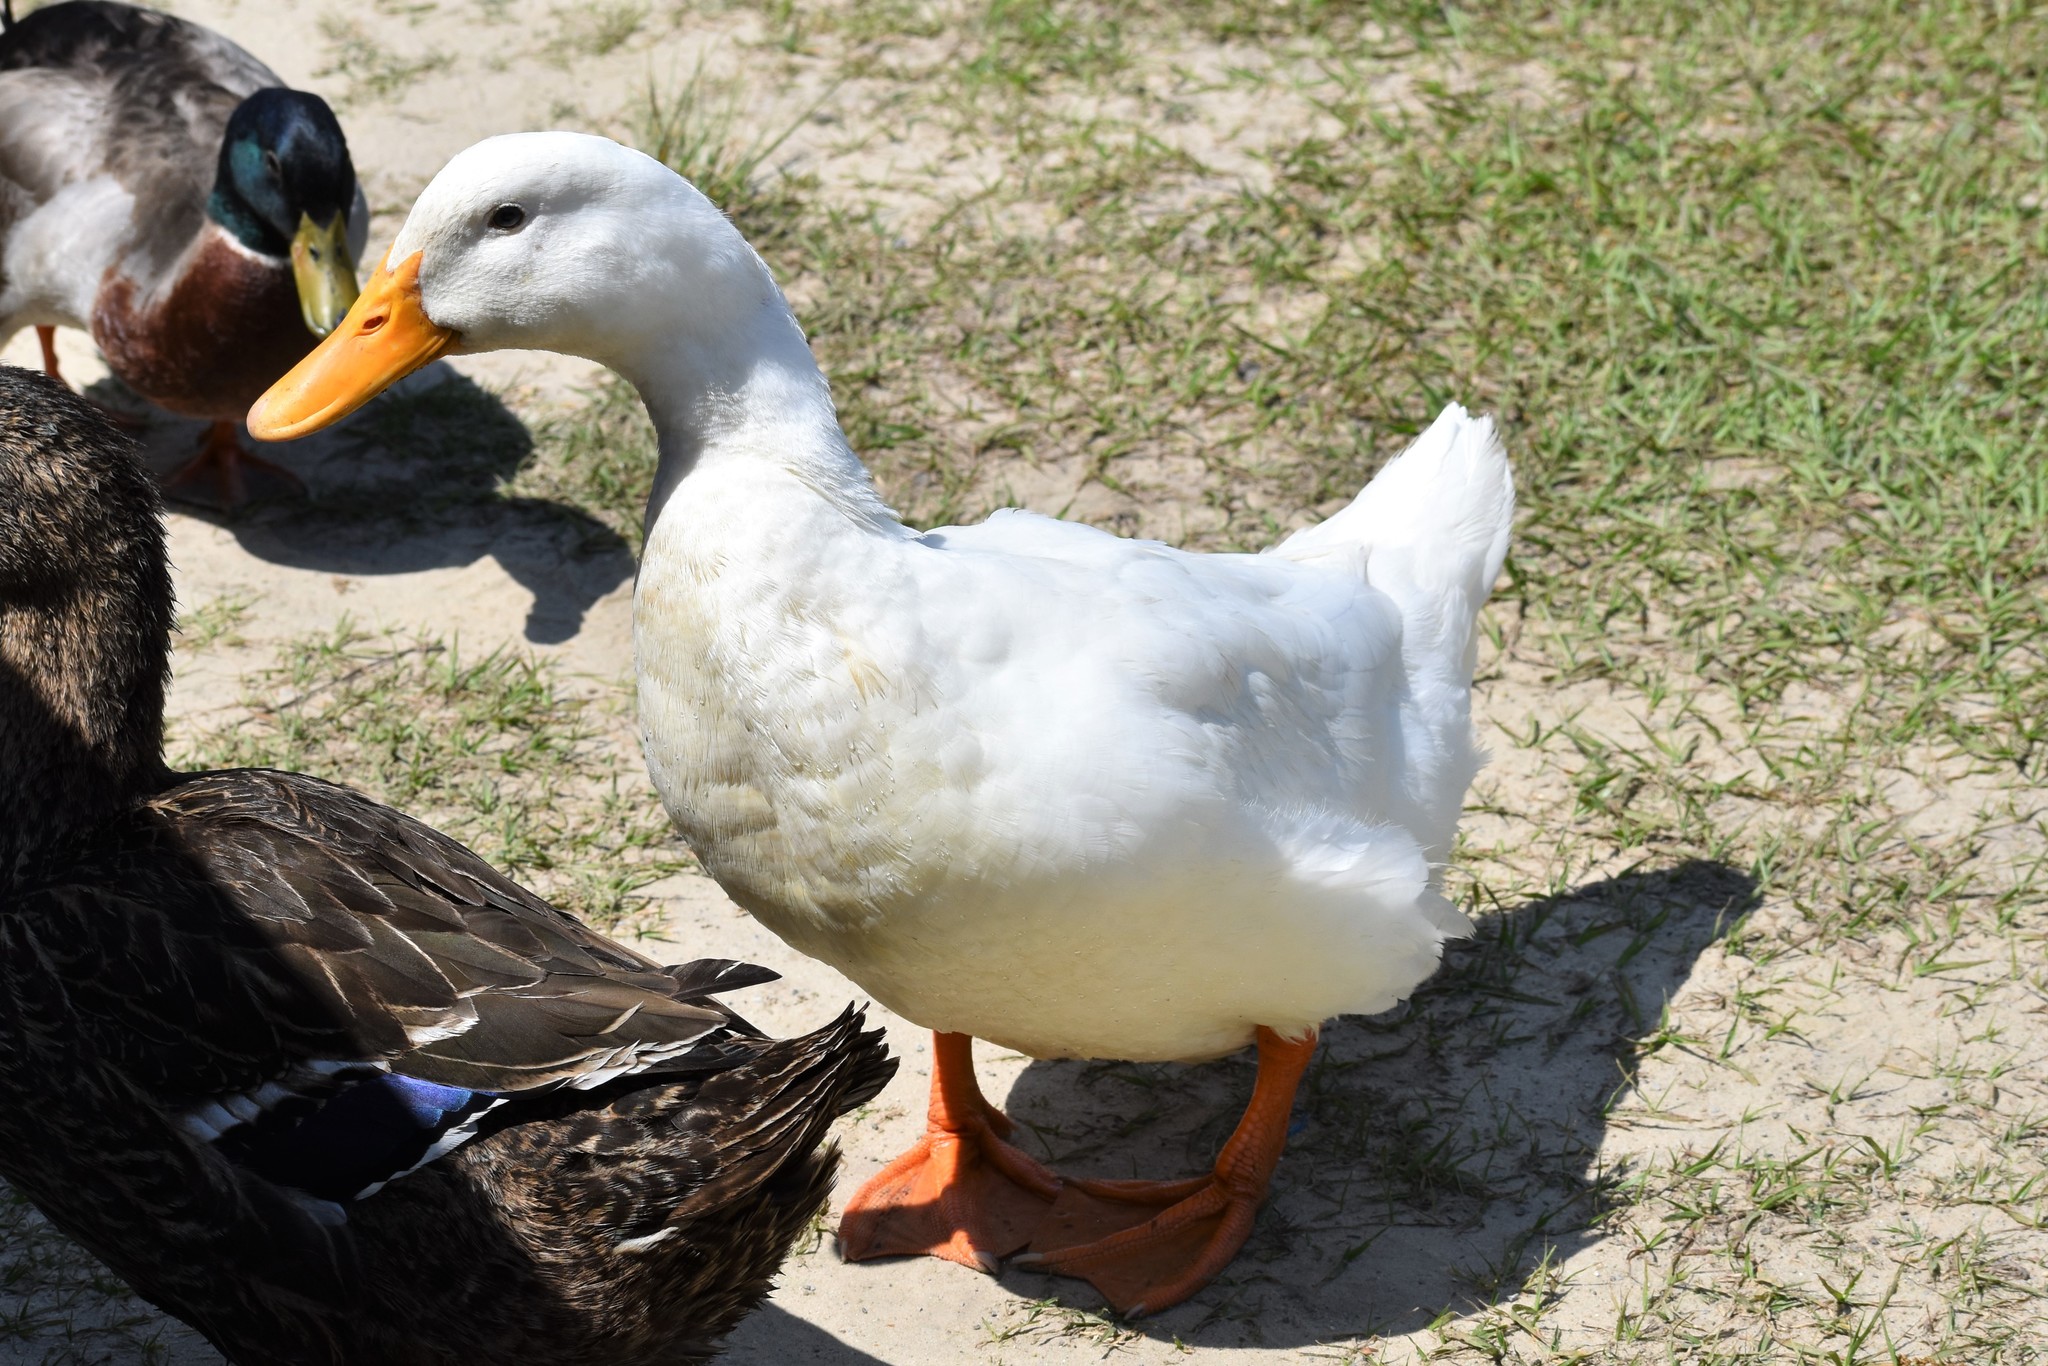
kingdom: Animalia
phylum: Chordata
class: Aves
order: Anseriformes
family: Anatidae
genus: Anas
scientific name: Anas platyrhynchos
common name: Mallard
